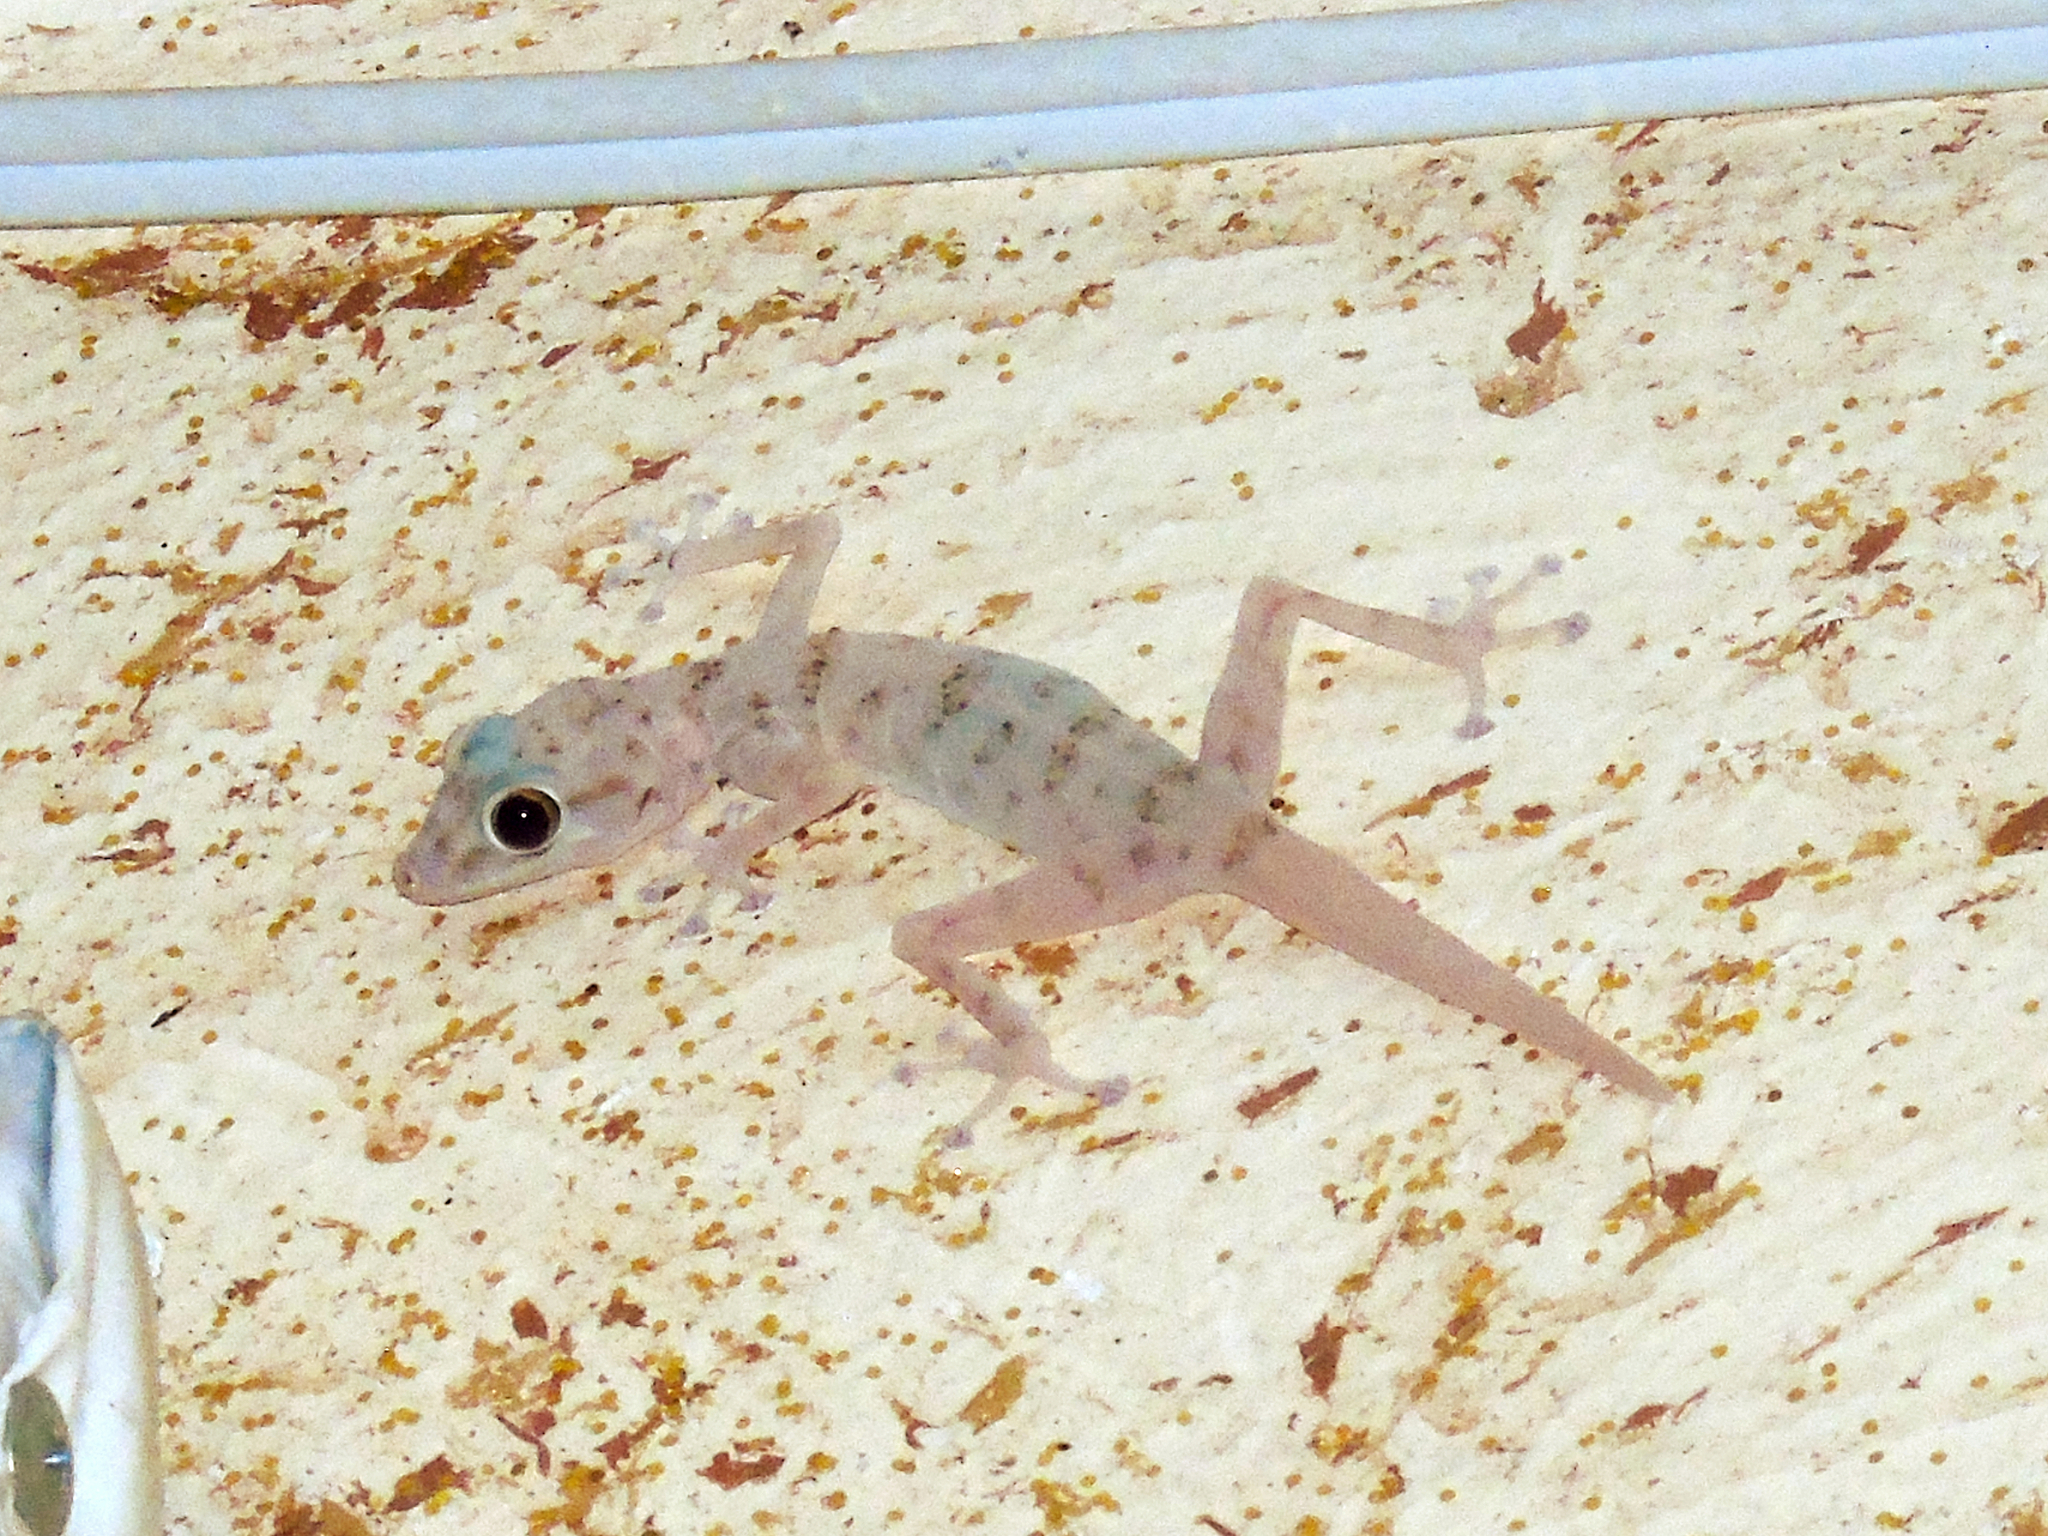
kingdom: Animalia
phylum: Chordata
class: Squamata
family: Phyllodactylidae
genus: Ptyodactylus
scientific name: Ptyodactylus hasselquistii
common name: Hasselquist’s fan-footed gecko
